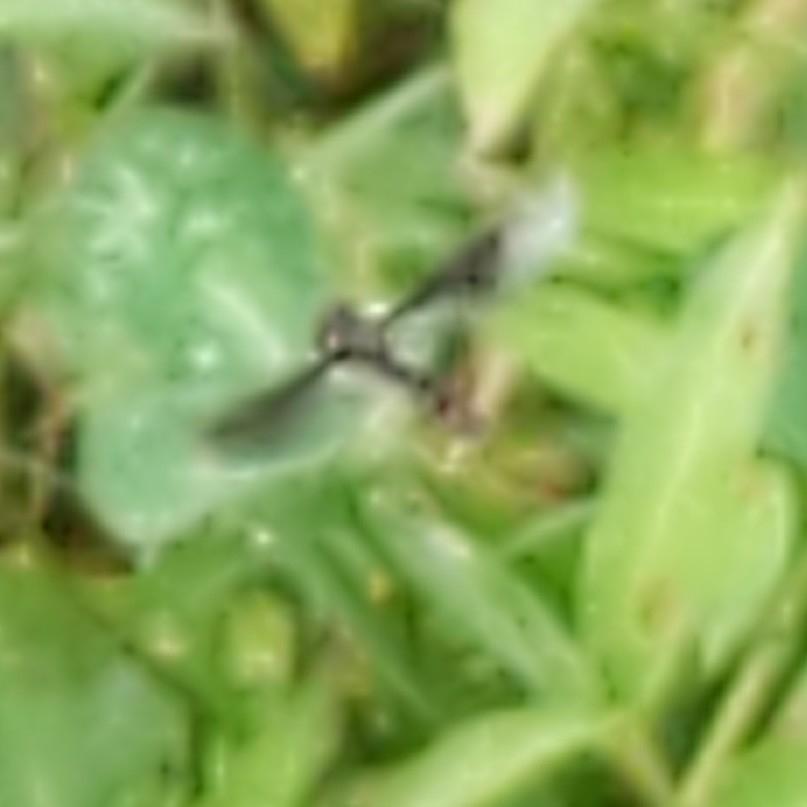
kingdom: Animalia
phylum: Arthropoda
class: Insecta
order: Diptera
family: Syrphidae
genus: Ocyptamus
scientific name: Ocyptamus fuscipennis
